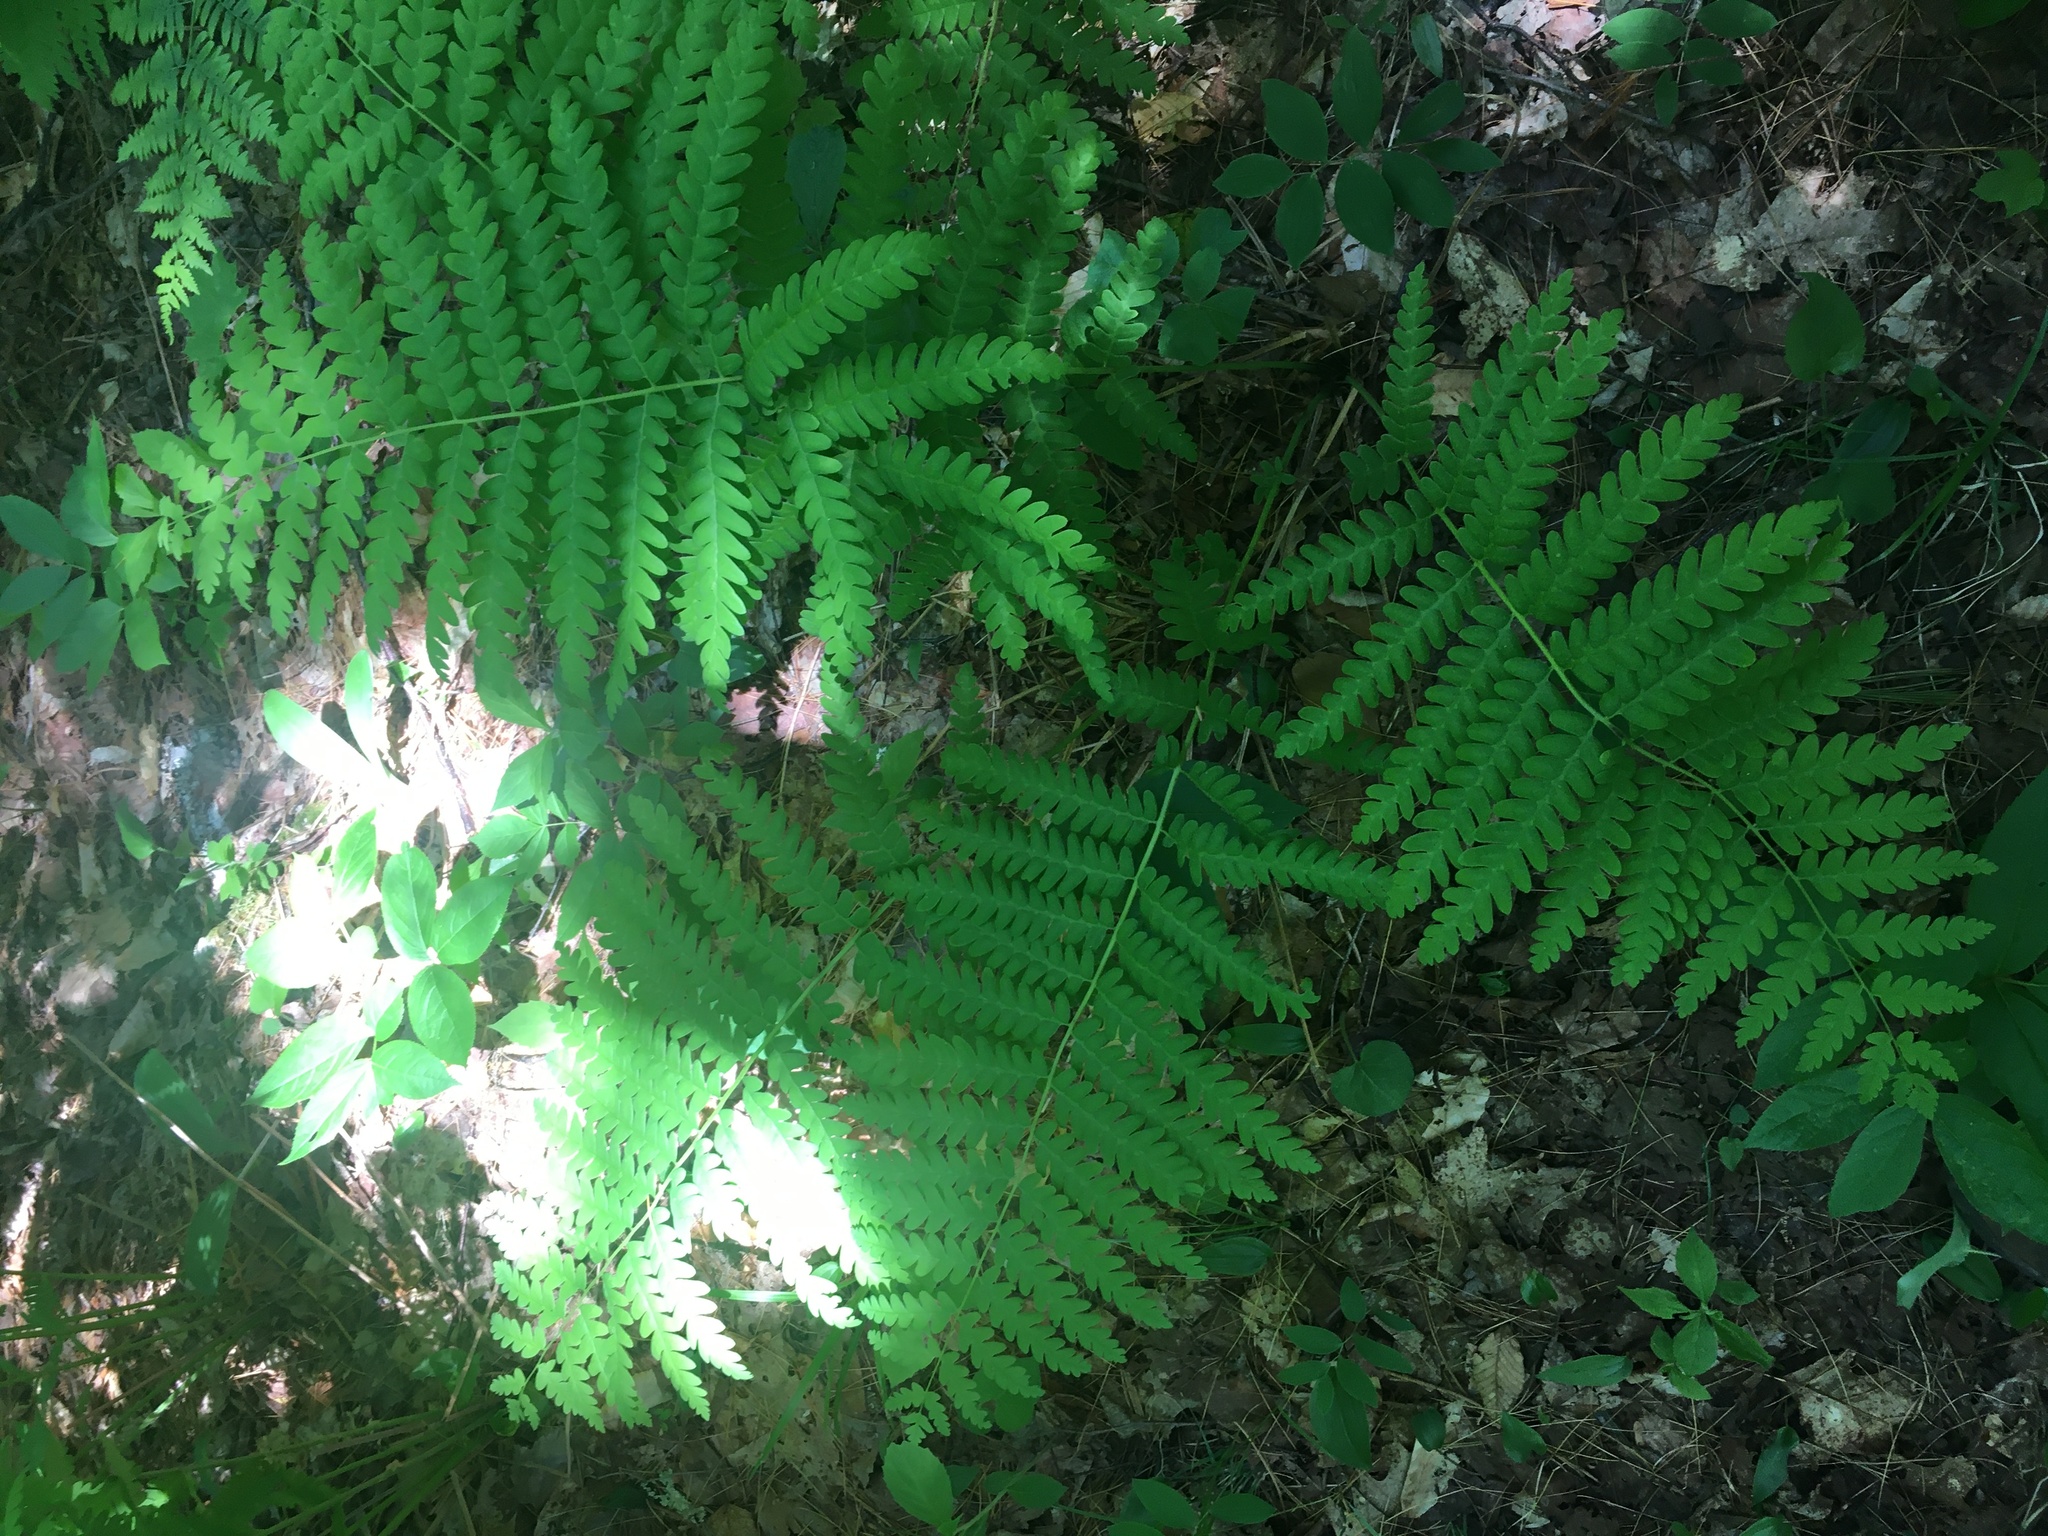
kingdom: Plantae
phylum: Tracheophyta
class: Polypodiopsida
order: Osmundales
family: Osmundaceae
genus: Osmundastrum
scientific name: Osmundastrum cinnamomeum
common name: Cinnamon fern
